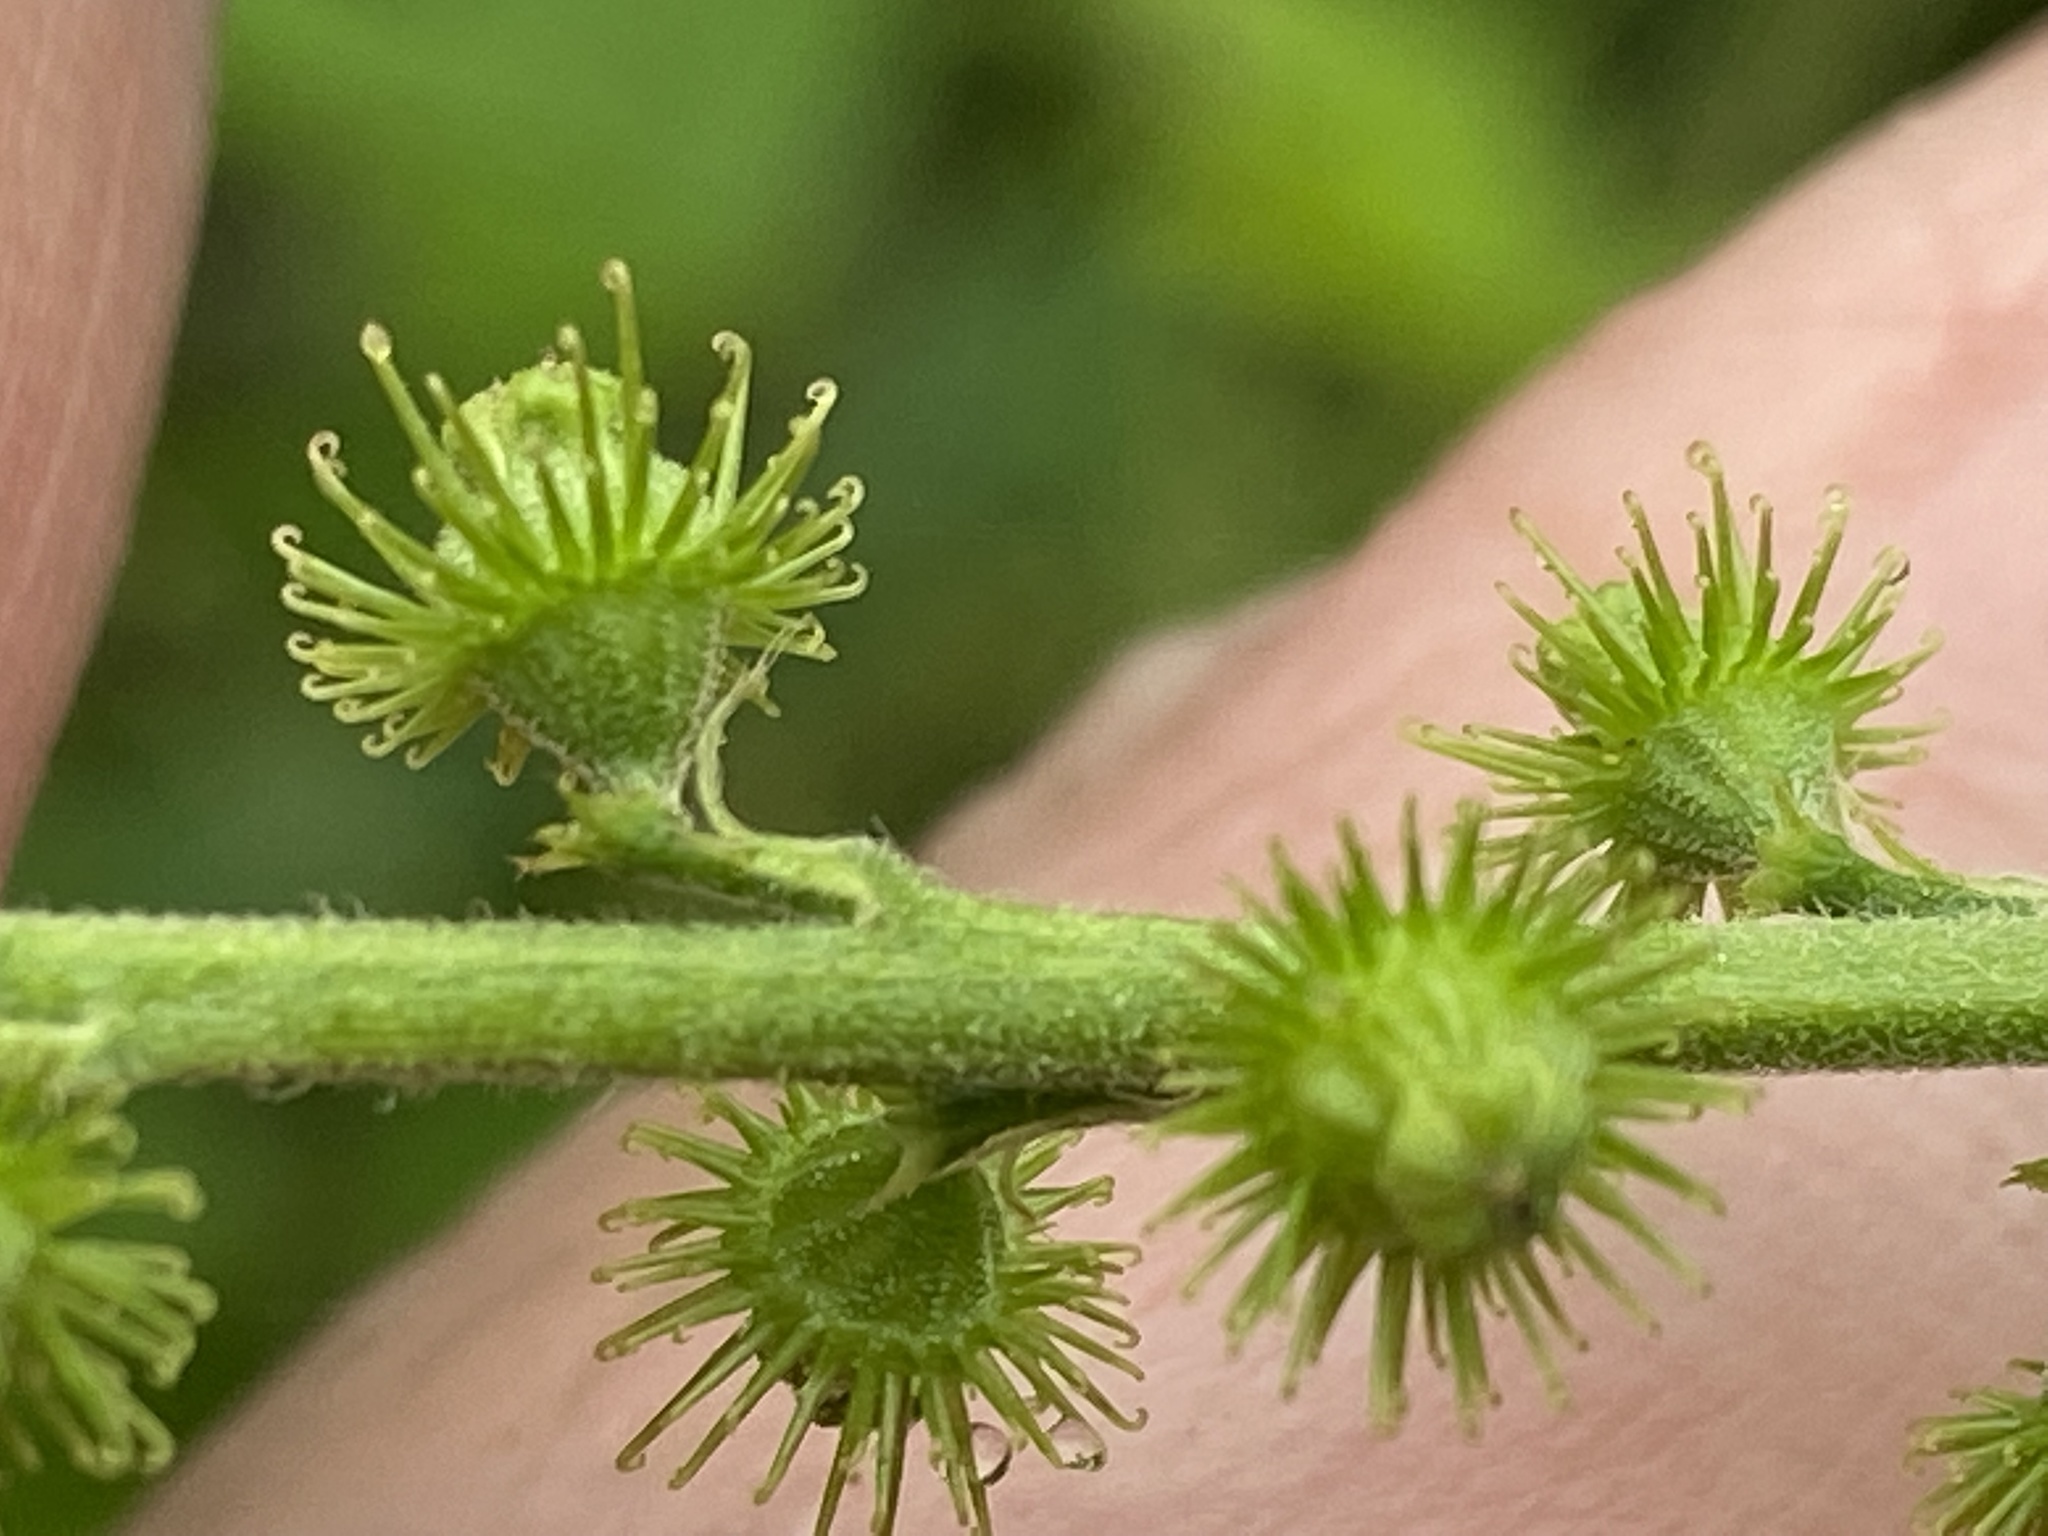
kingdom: Plantae
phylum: Tracheophyta
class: Magnoliopsida
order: Rosales
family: Rosaceae
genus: Agrimonia
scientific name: Agrimonia parviflora
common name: Harvest-lice
